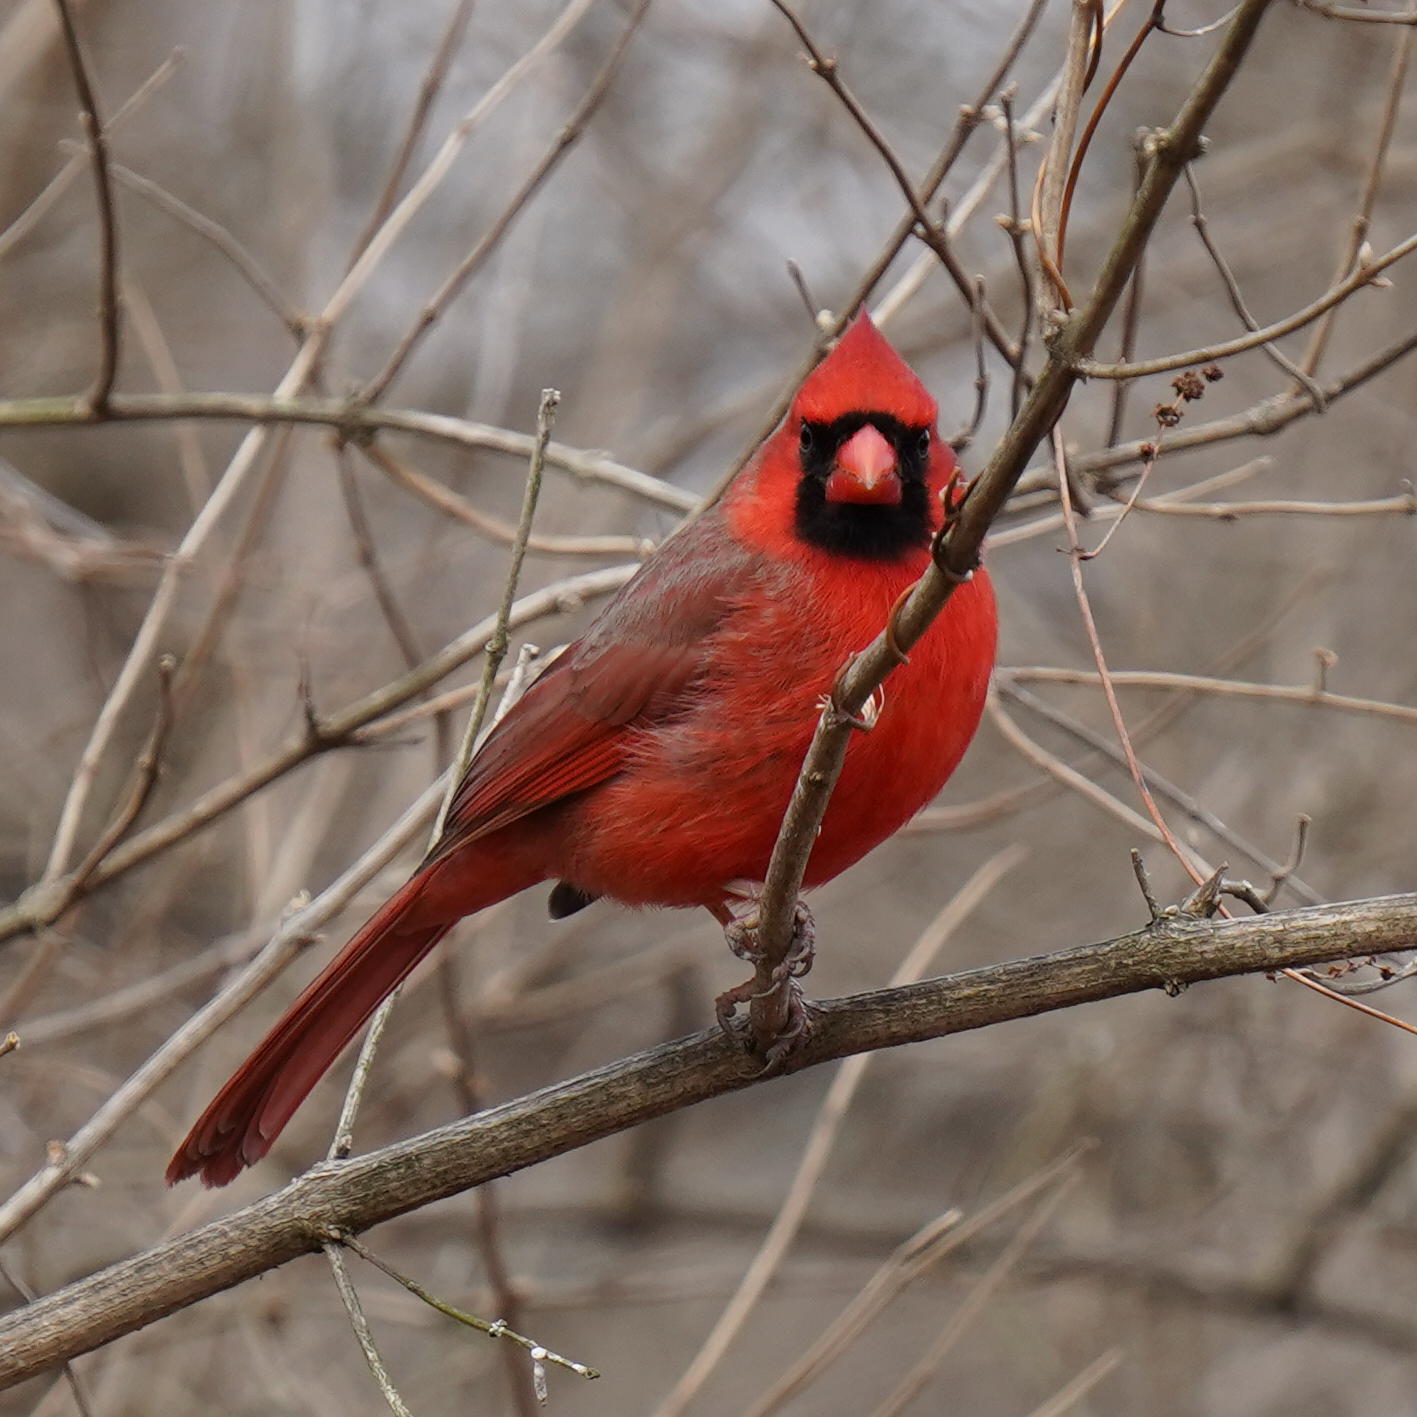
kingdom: Animalia
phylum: Chordata
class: Aves
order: Passeriformes
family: Cardinalidae
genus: Cardinalis
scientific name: Cardinalis cardinalis
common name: Northern cardinal
